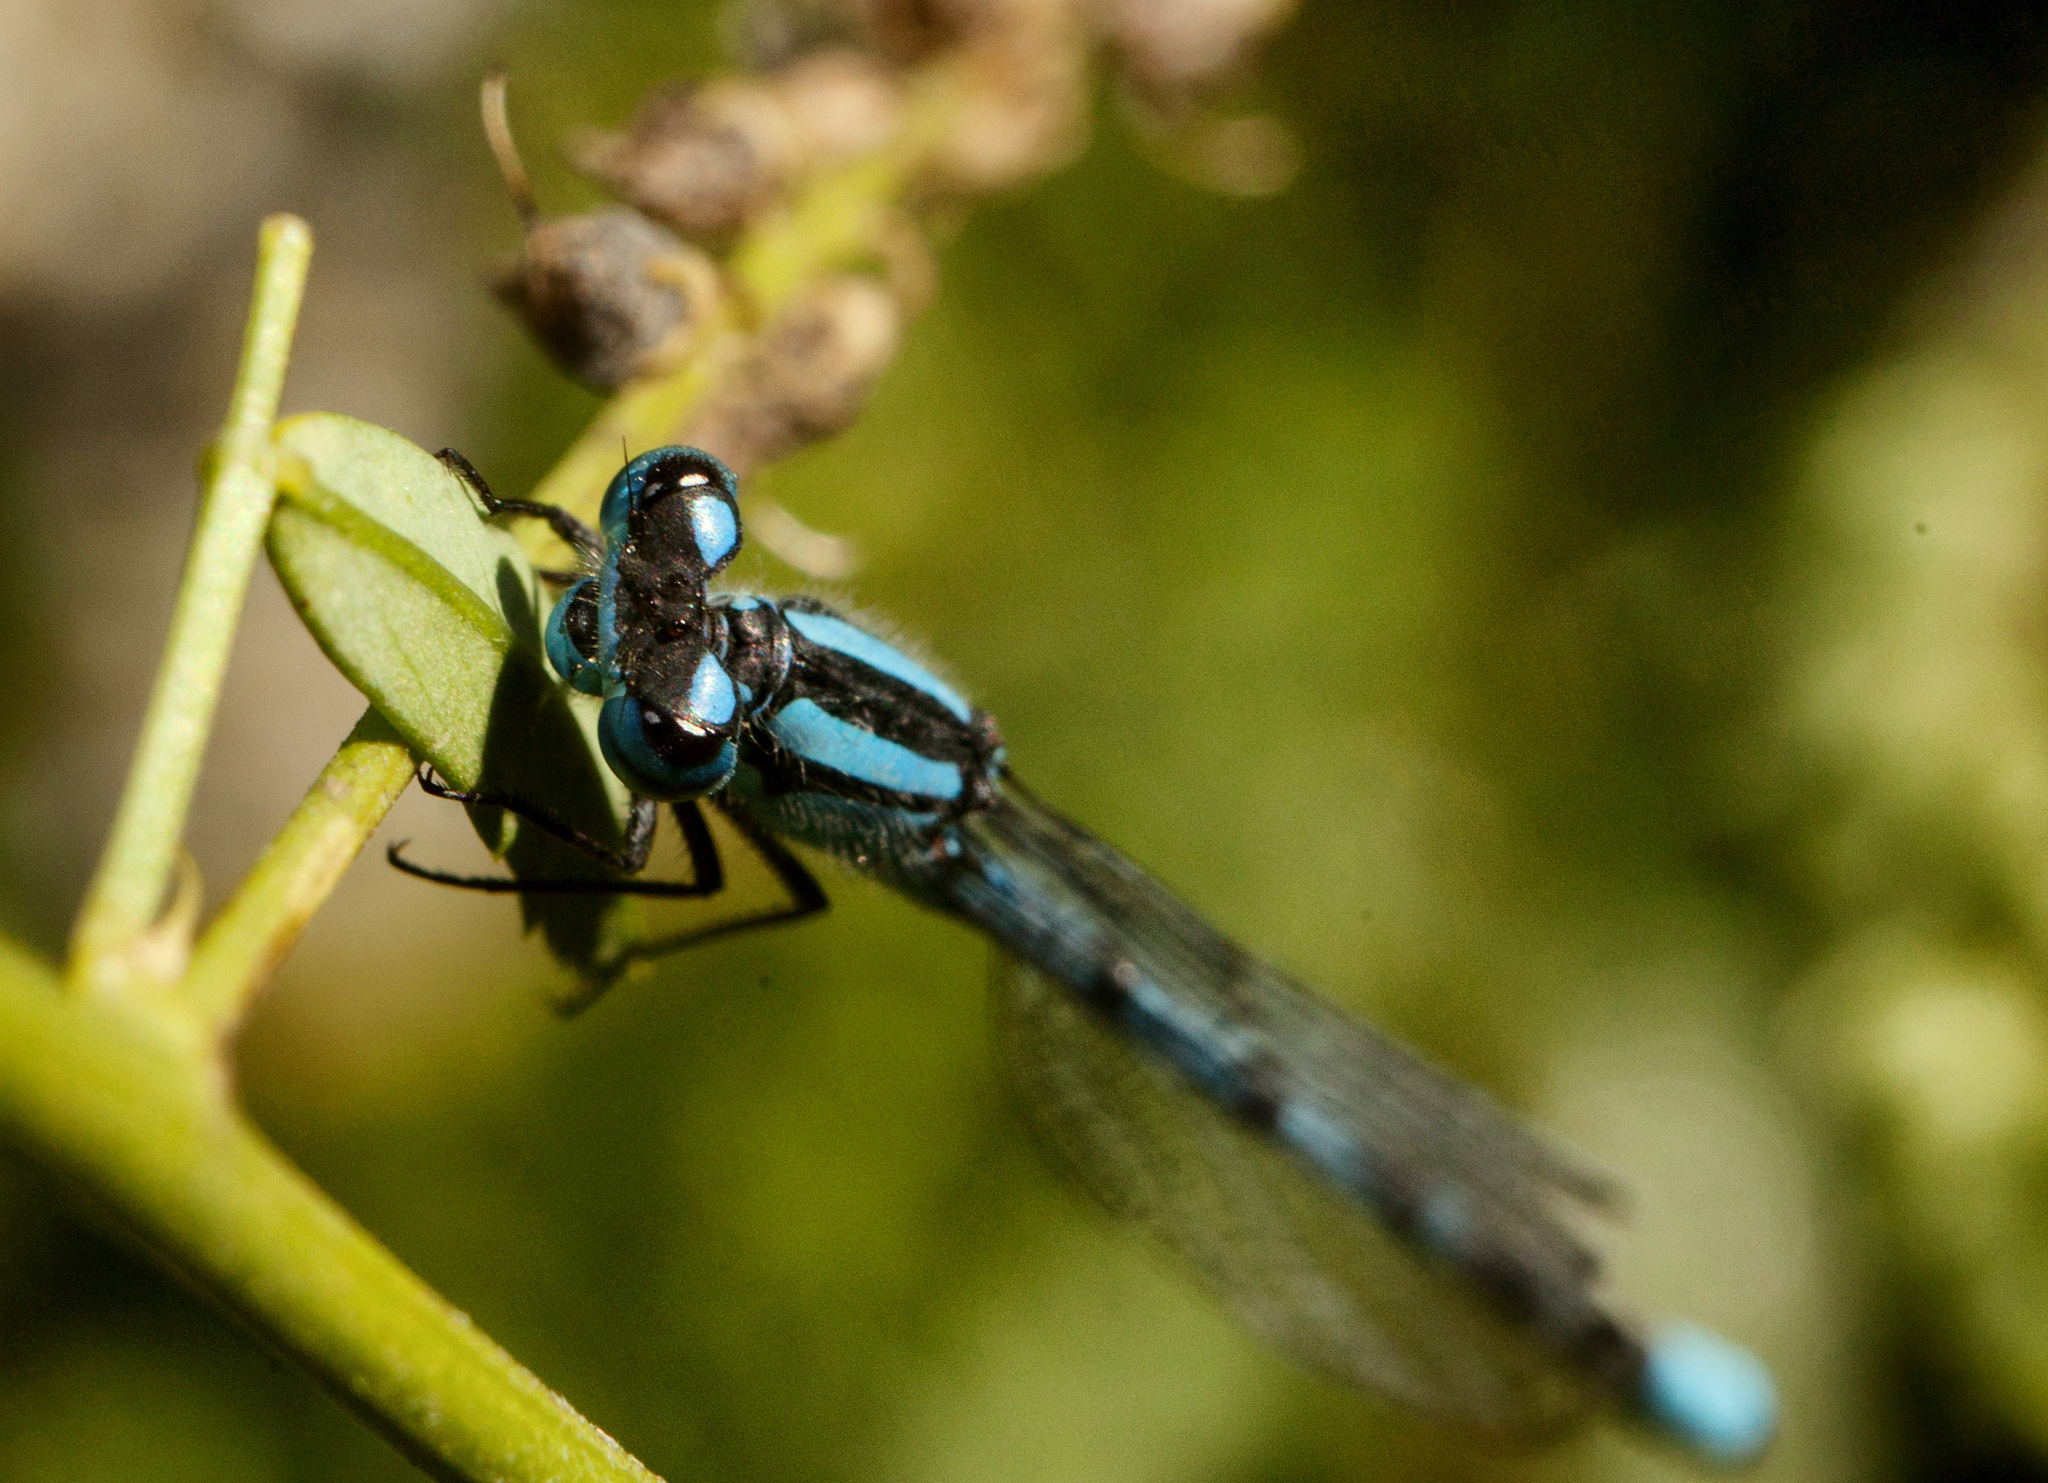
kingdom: Animalia
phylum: Arthropoda
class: Insecta
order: Odonata
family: Coenagrionidae
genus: Enallagma
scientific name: Enallagma cyathigerum
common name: Common blue damselfly
